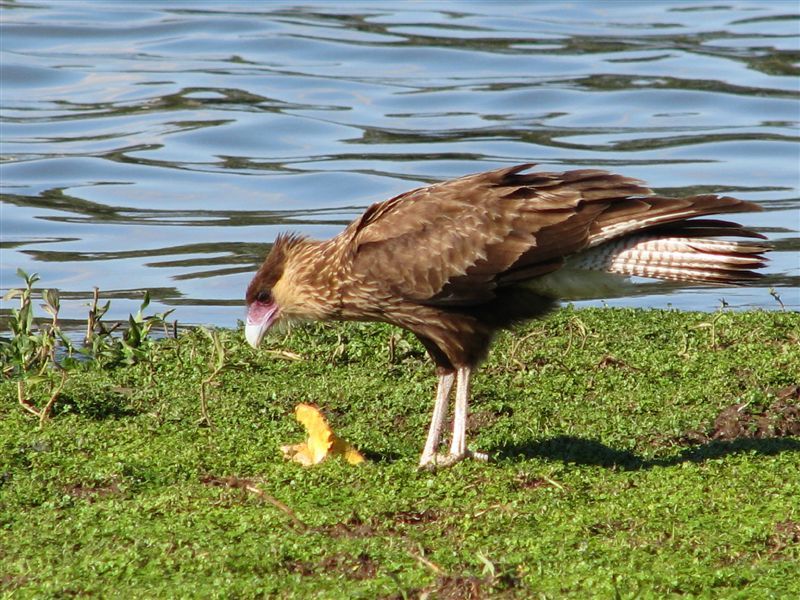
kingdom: Animalia
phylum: Chordata
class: Aves
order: Falconiformes
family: Falconidae
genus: Caracara
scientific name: Caracara plancus
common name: Southern caracara
